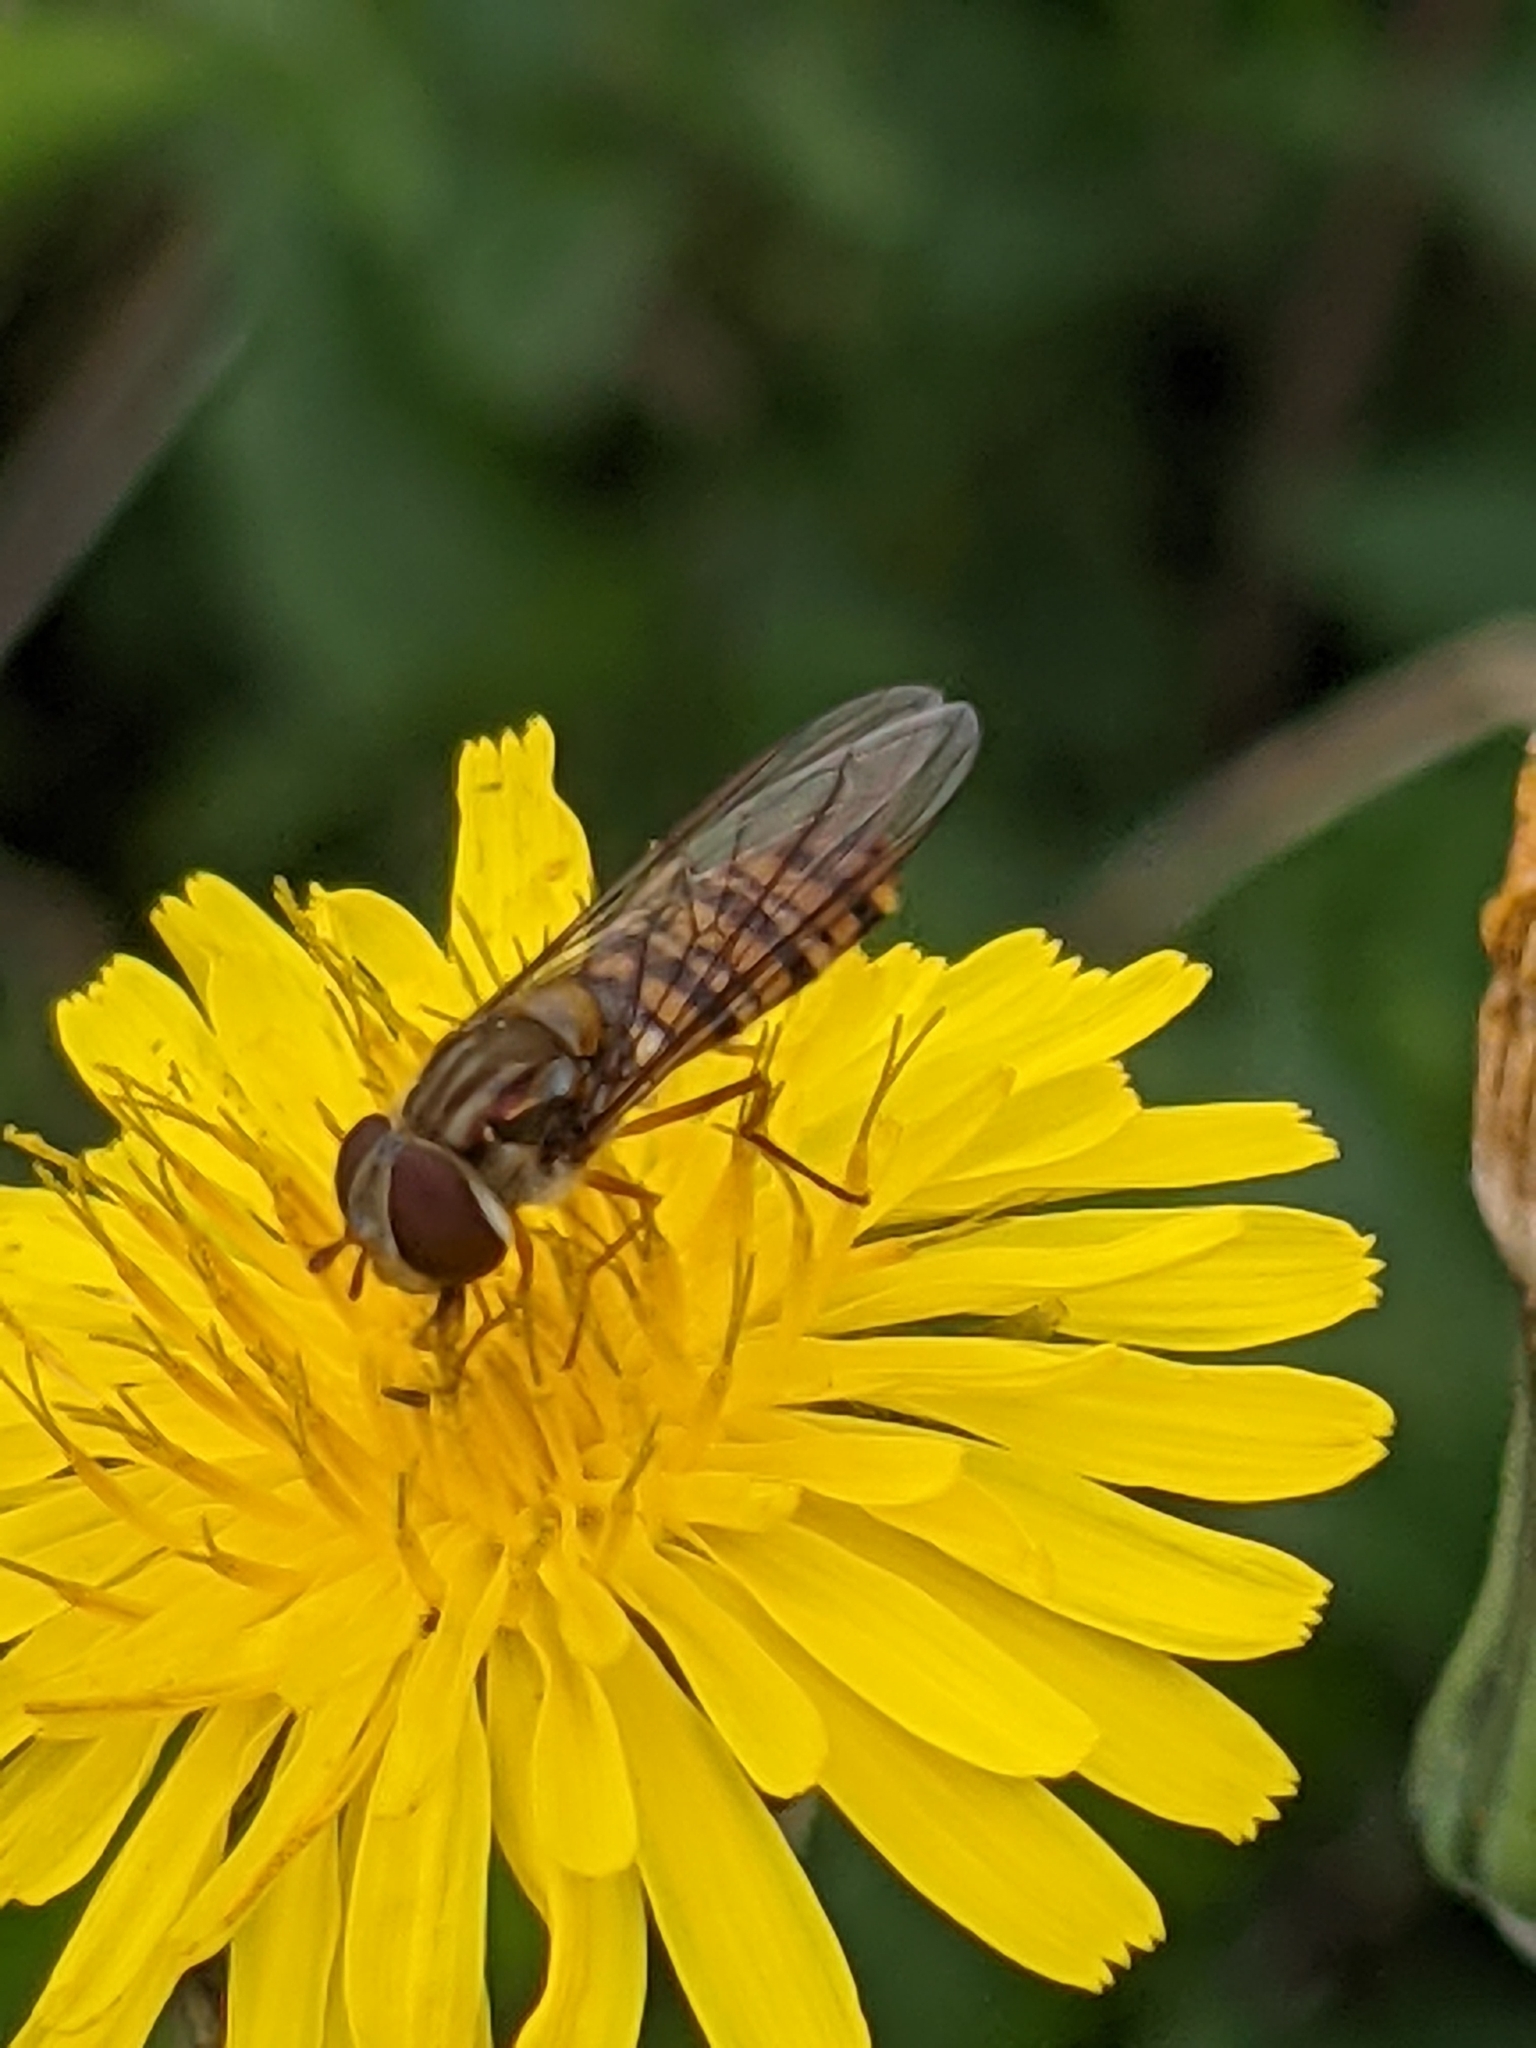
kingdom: Animalia
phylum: Arthropoda
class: Insecta
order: Diptera
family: Syrphidae
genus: Episyrphus
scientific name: Episyrphus balteatus
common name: Marmalade hoverfly
